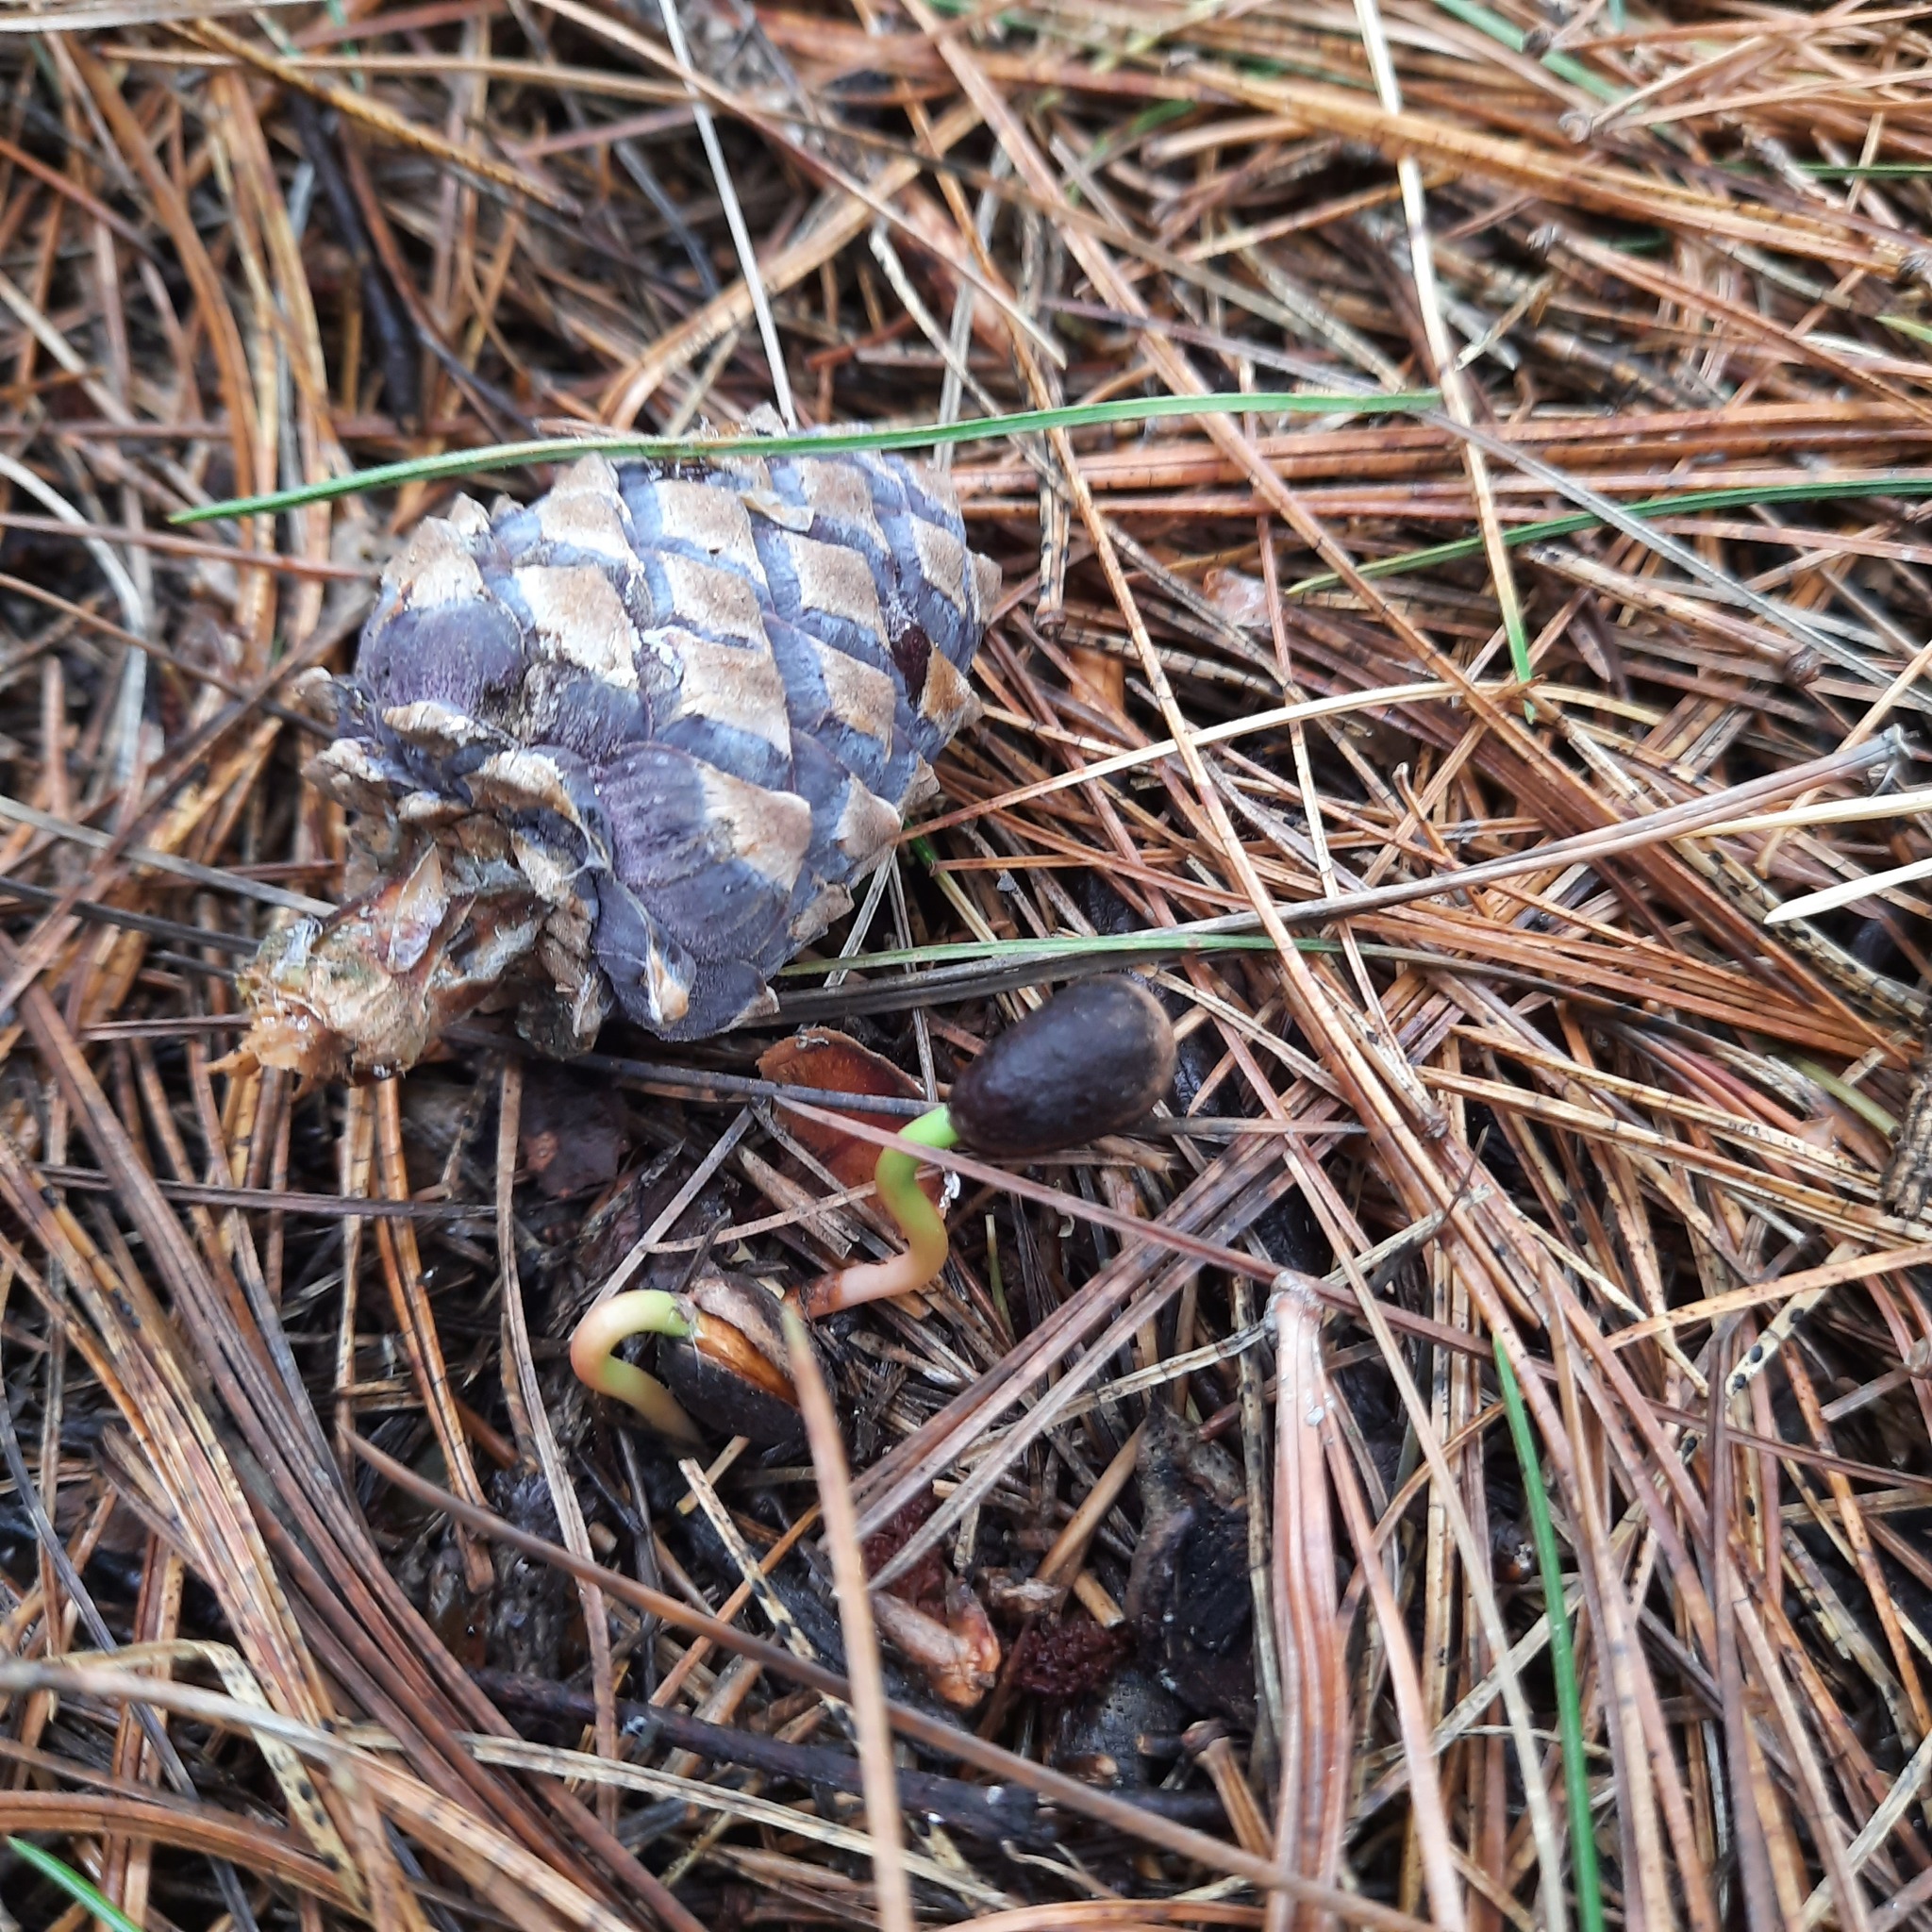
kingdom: Plantae
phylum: Tracheophyta
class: Pinopsida
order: Pinales
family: Pinaceae
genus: Pinus
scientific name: Pinus sibirica
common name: Siberian pine
